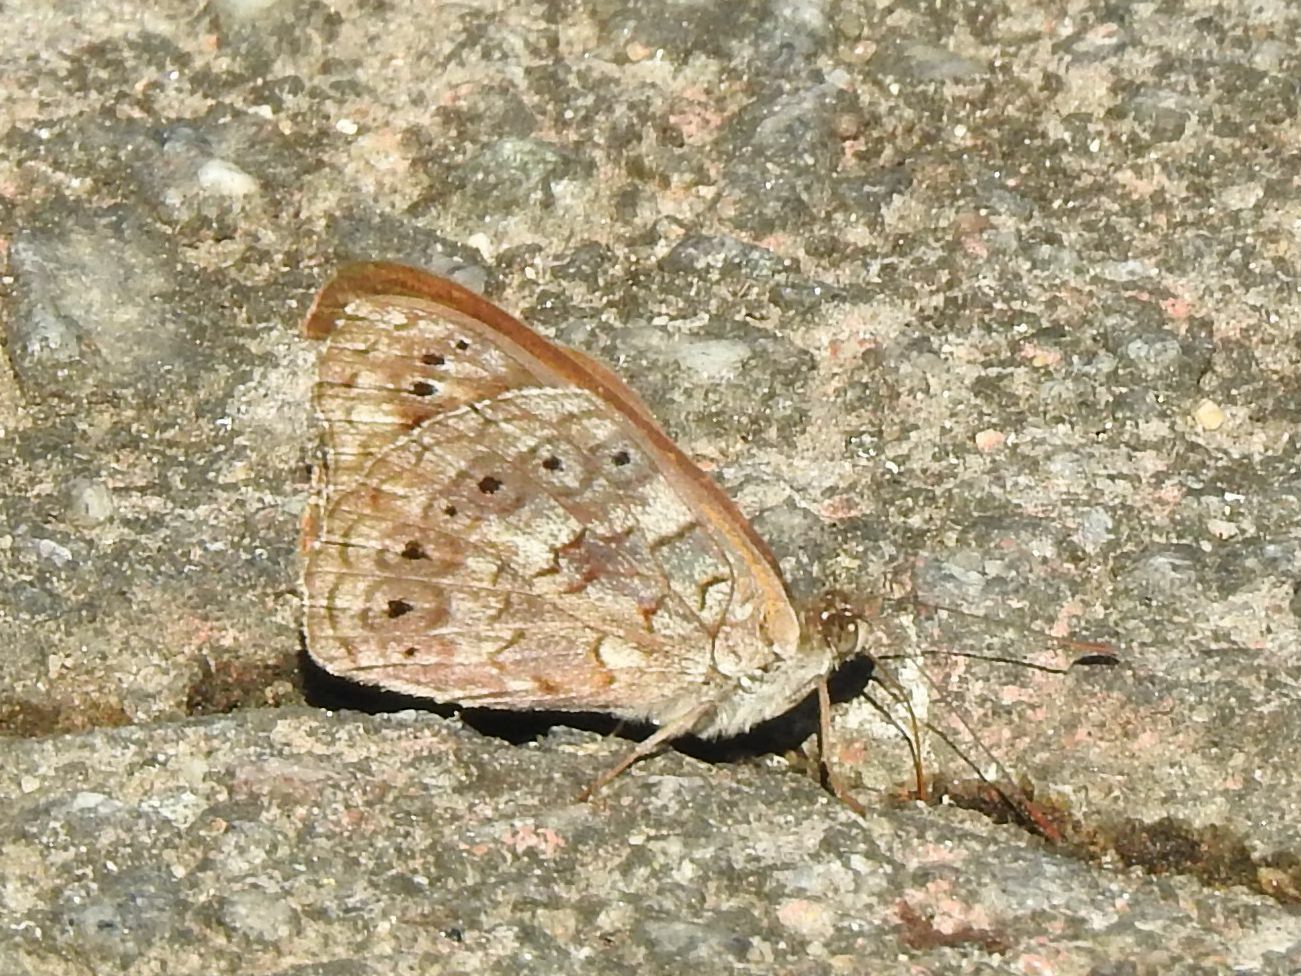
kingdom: Animalia
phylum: Arthropoda
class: Insecta
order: Lepidoptera
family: Nymphalidae
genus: Asterope
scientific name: Asterope boisduvali
